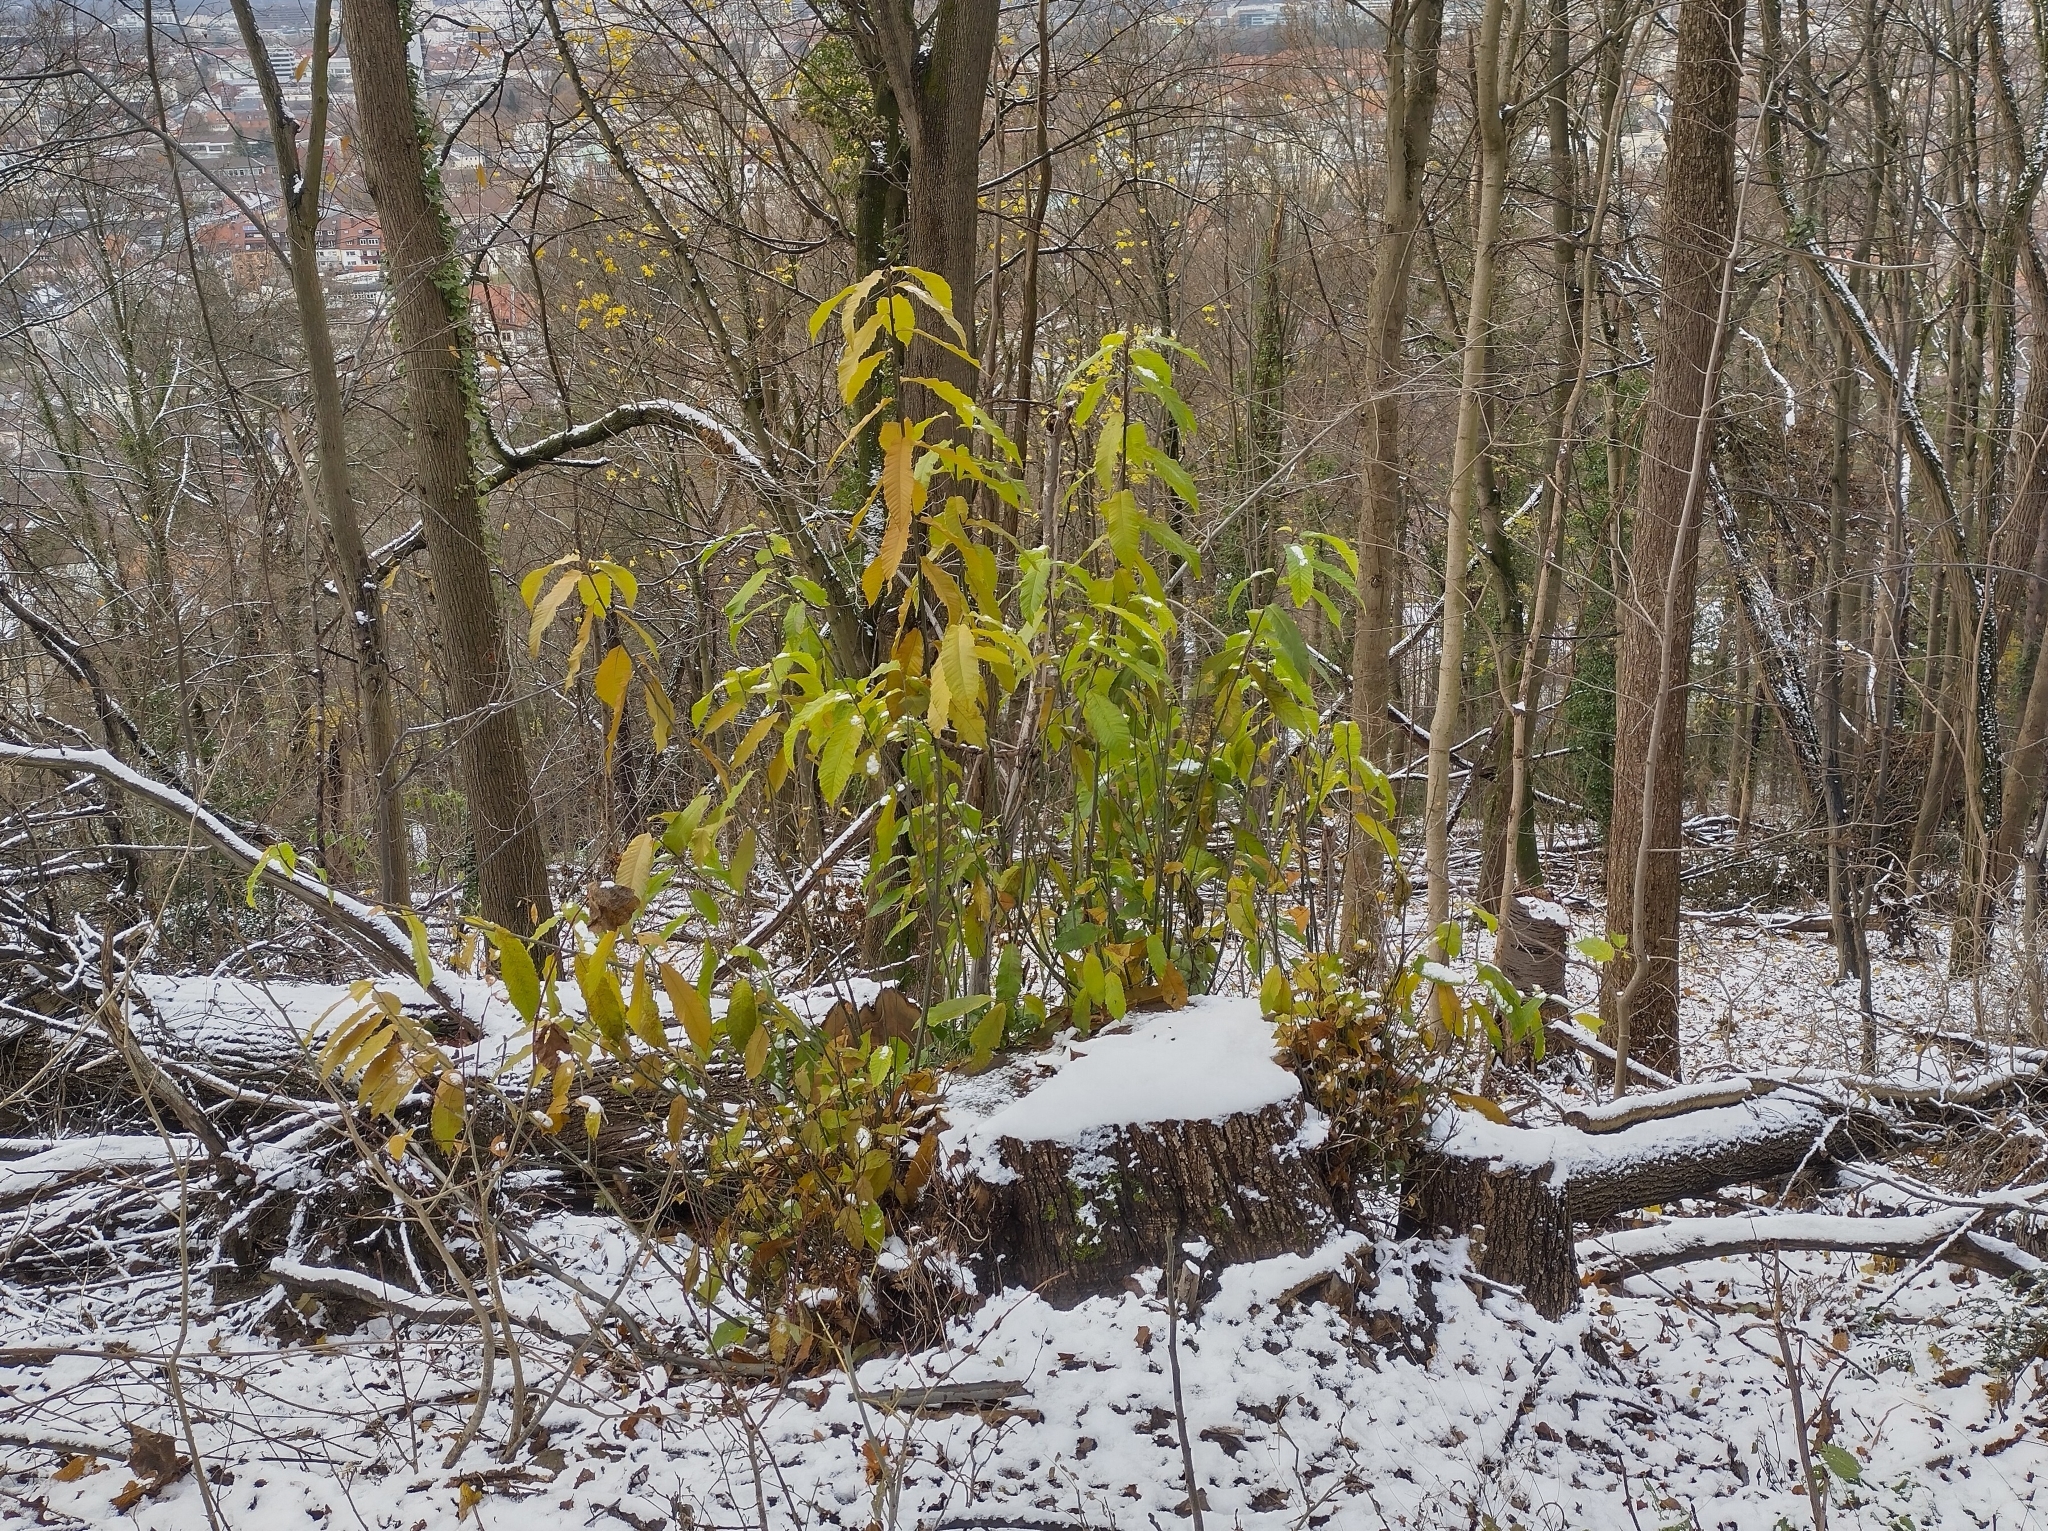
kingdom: Plantae
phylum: Tracheophyta
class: Magnoliopsida
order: Fagales
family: Fagaceae
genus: Castanea
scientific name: Castanea sativa
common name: Sweet chestnut
